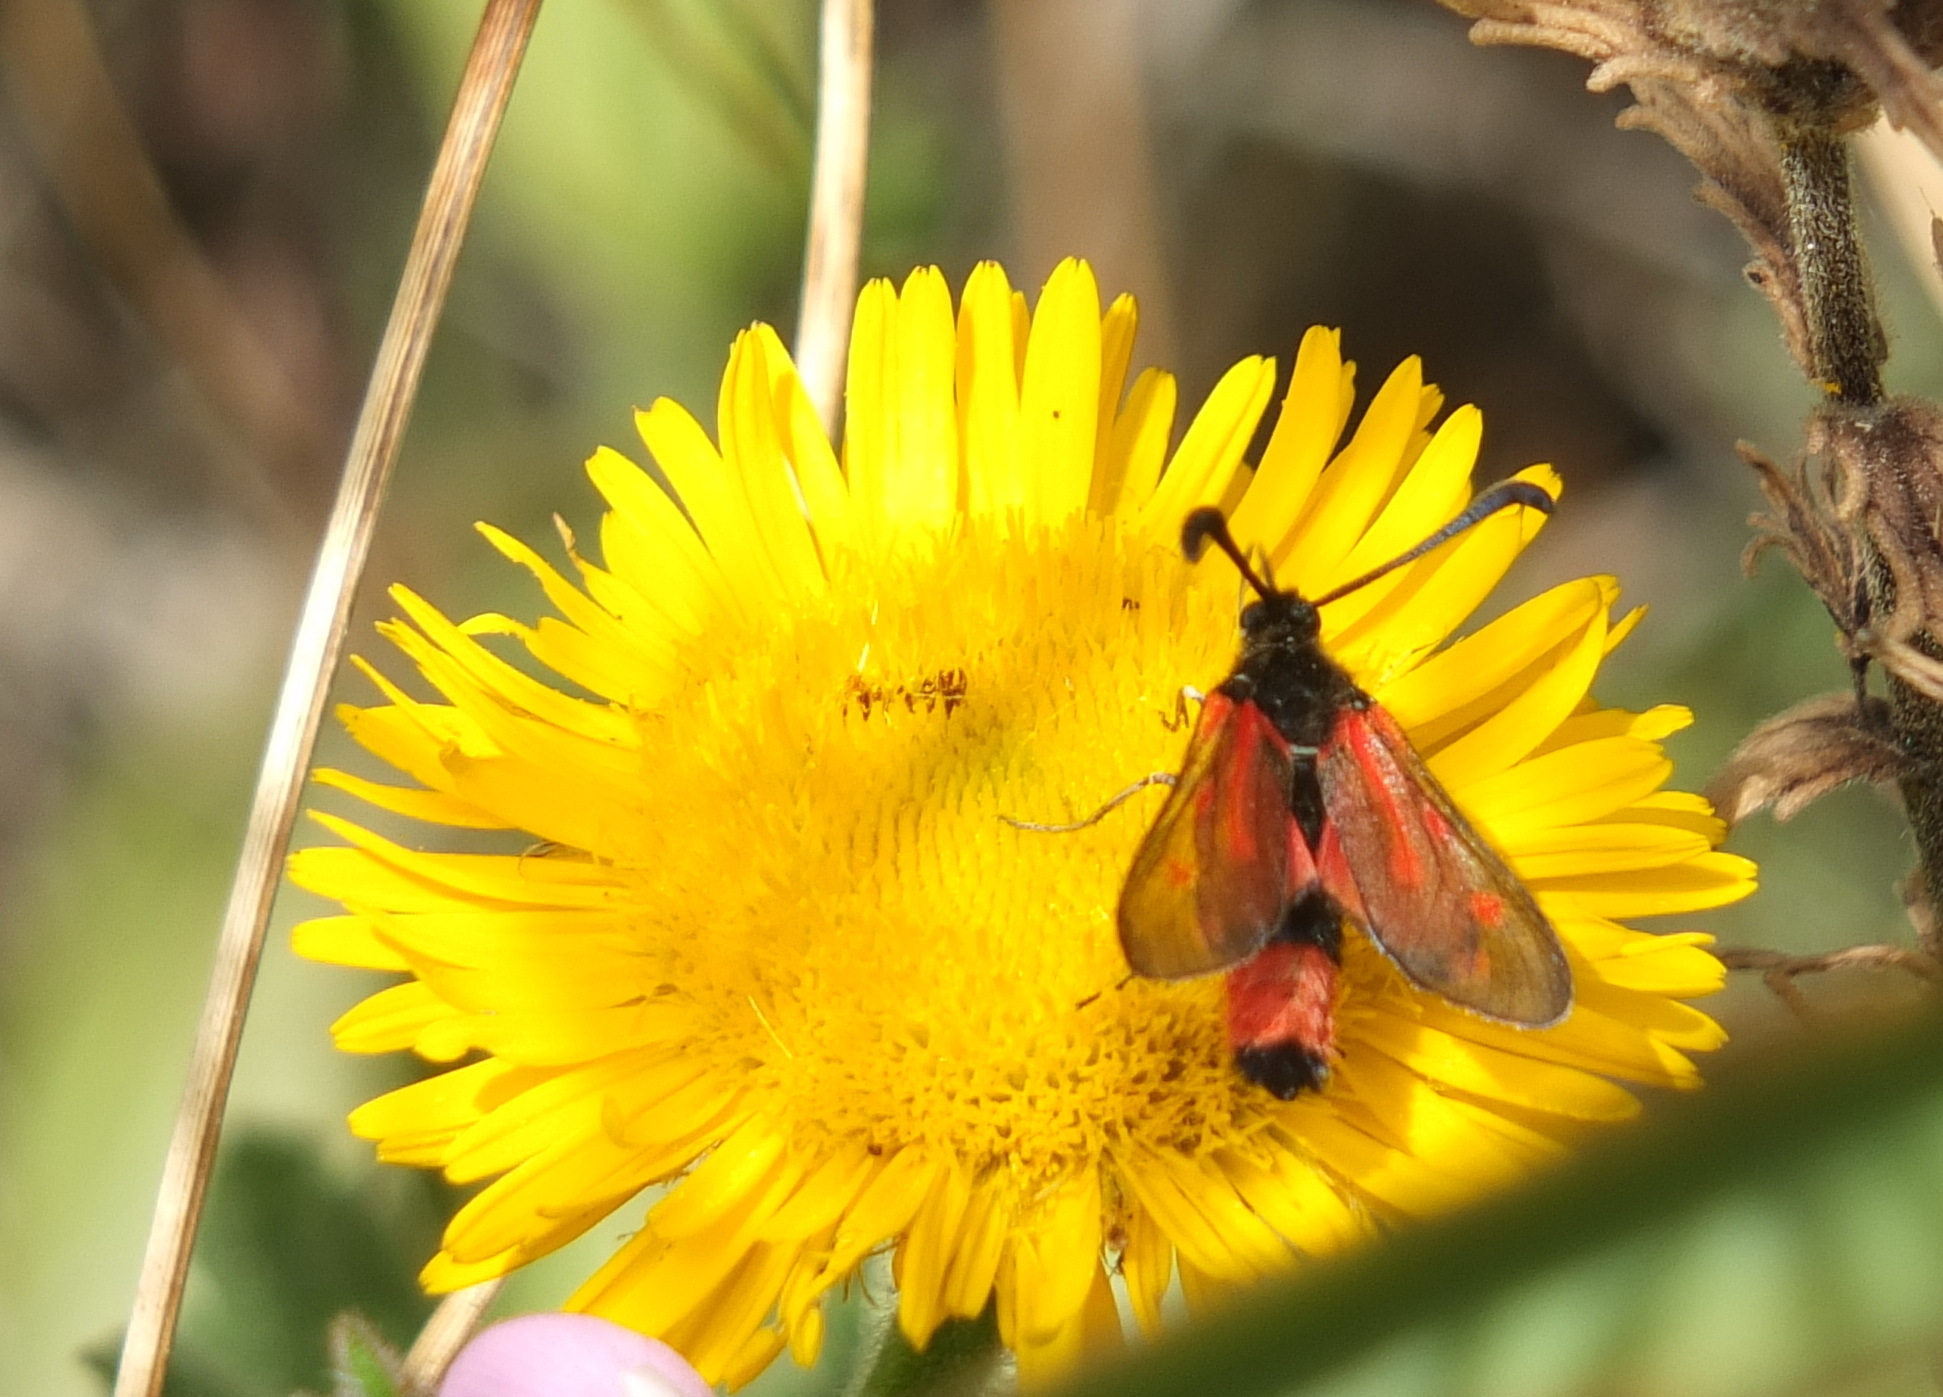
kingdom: Animalia
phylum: Arthropoda
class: Insecta
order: Lepidoptera
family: Zygaenidae
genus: Zygaena
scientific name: Zygaena favonia
